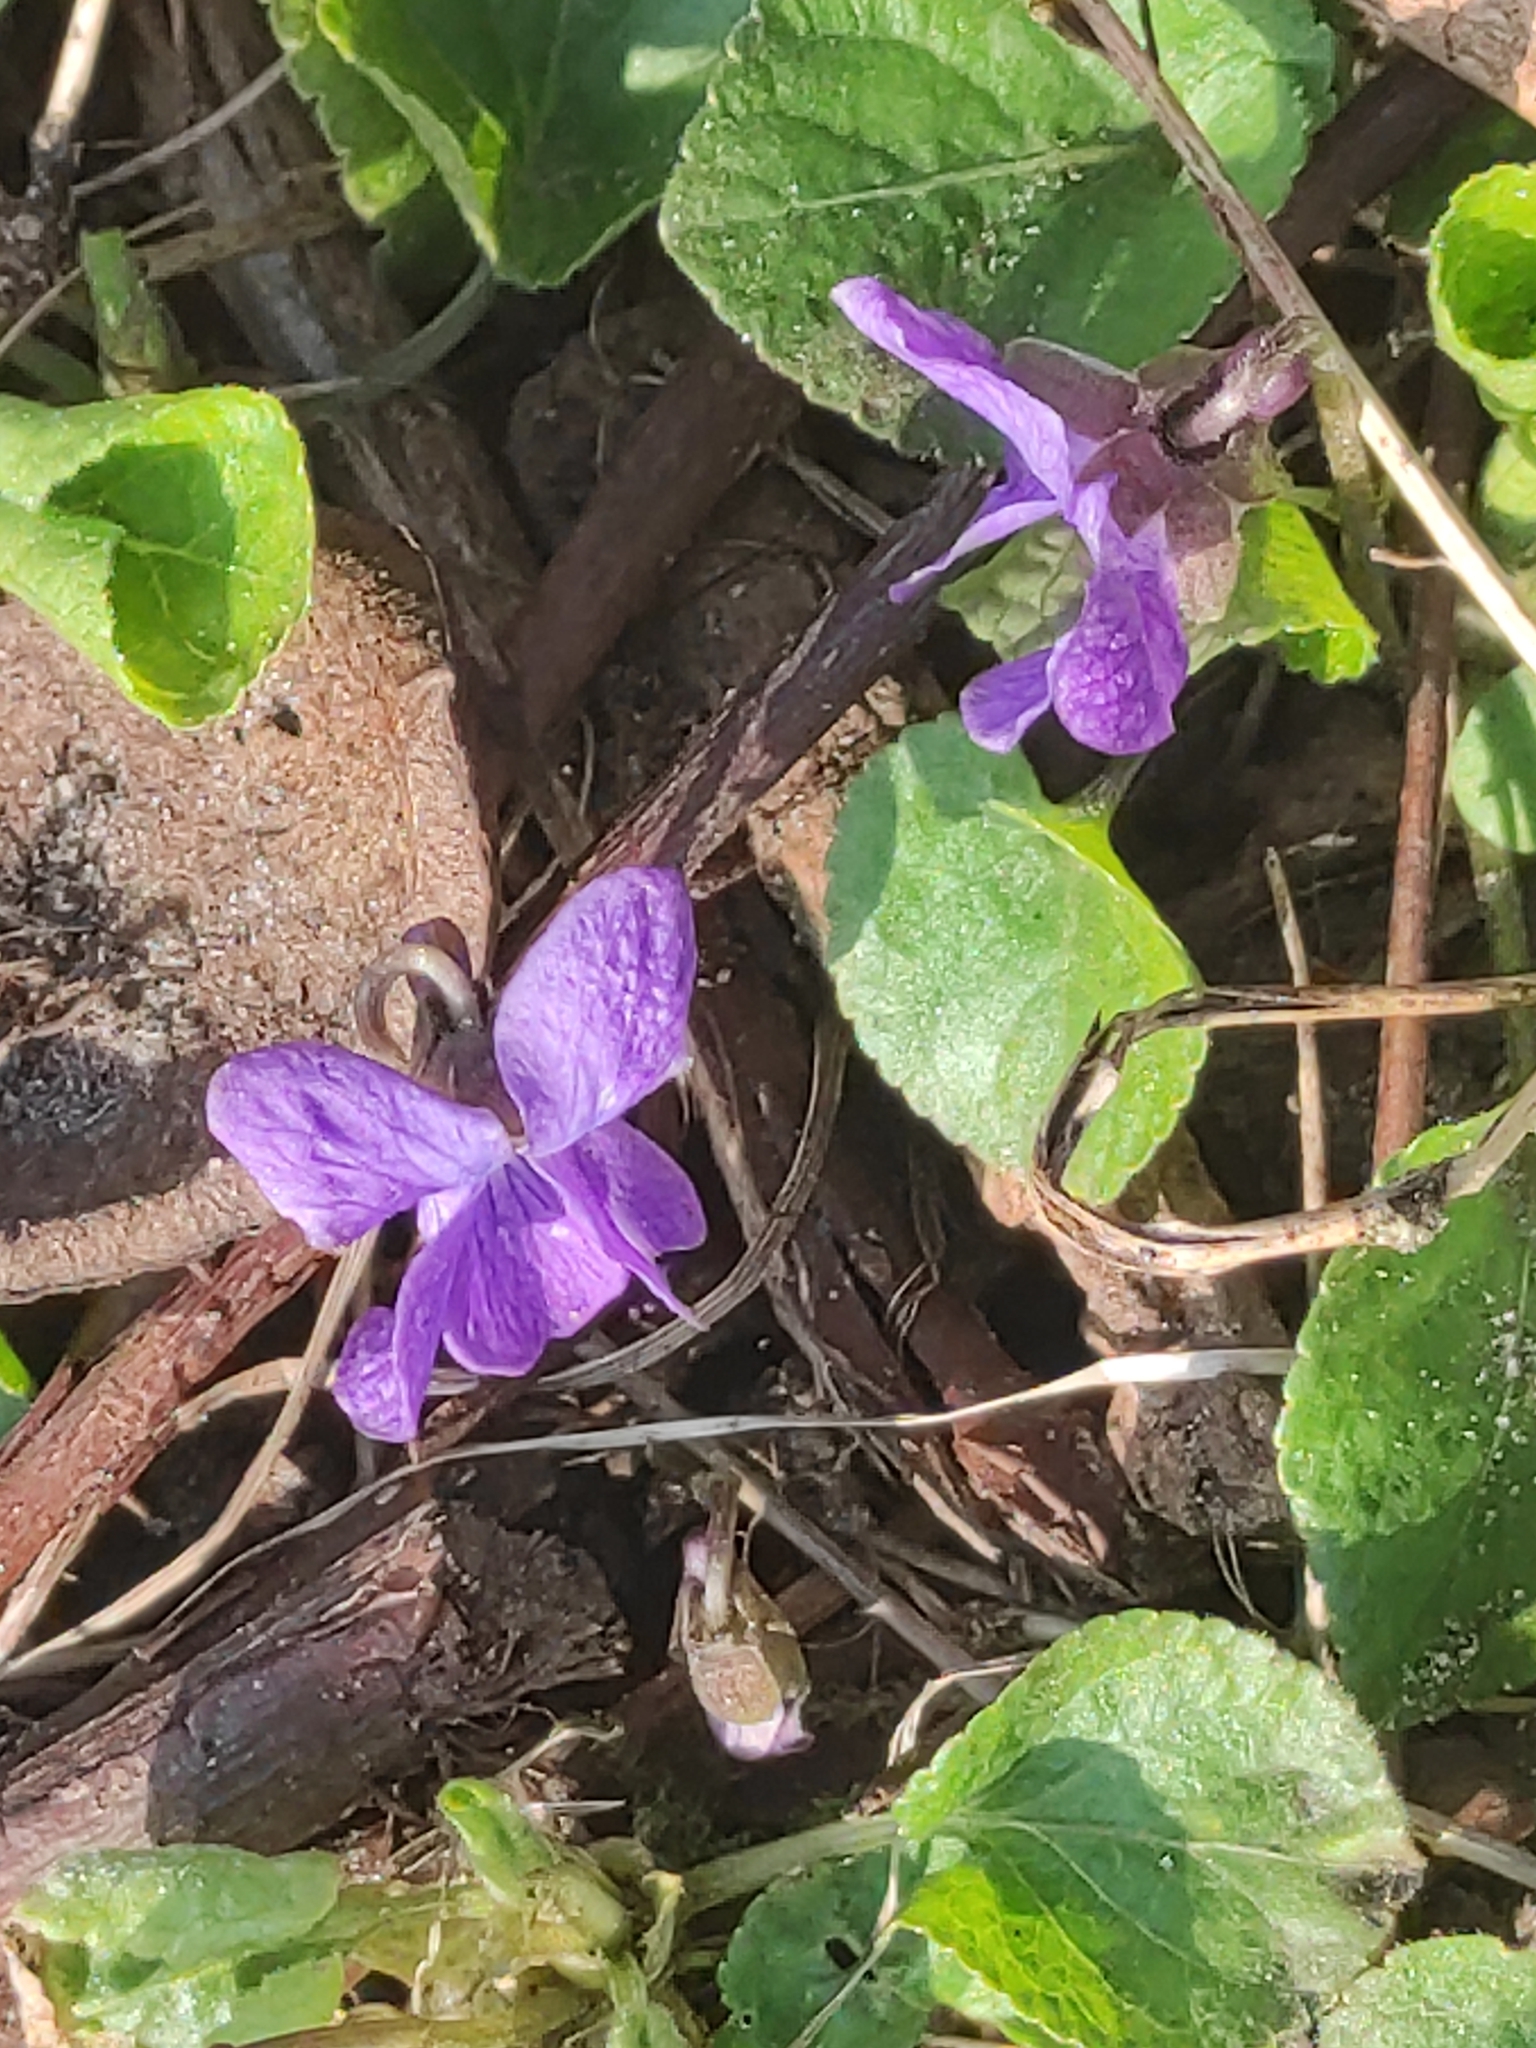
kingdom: Plantae
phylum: Tracheophyta
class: Magnoliopsida
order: Malpighiales
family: Violaceae
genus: Viola
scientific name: Viola odorata
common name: Sweet violet
